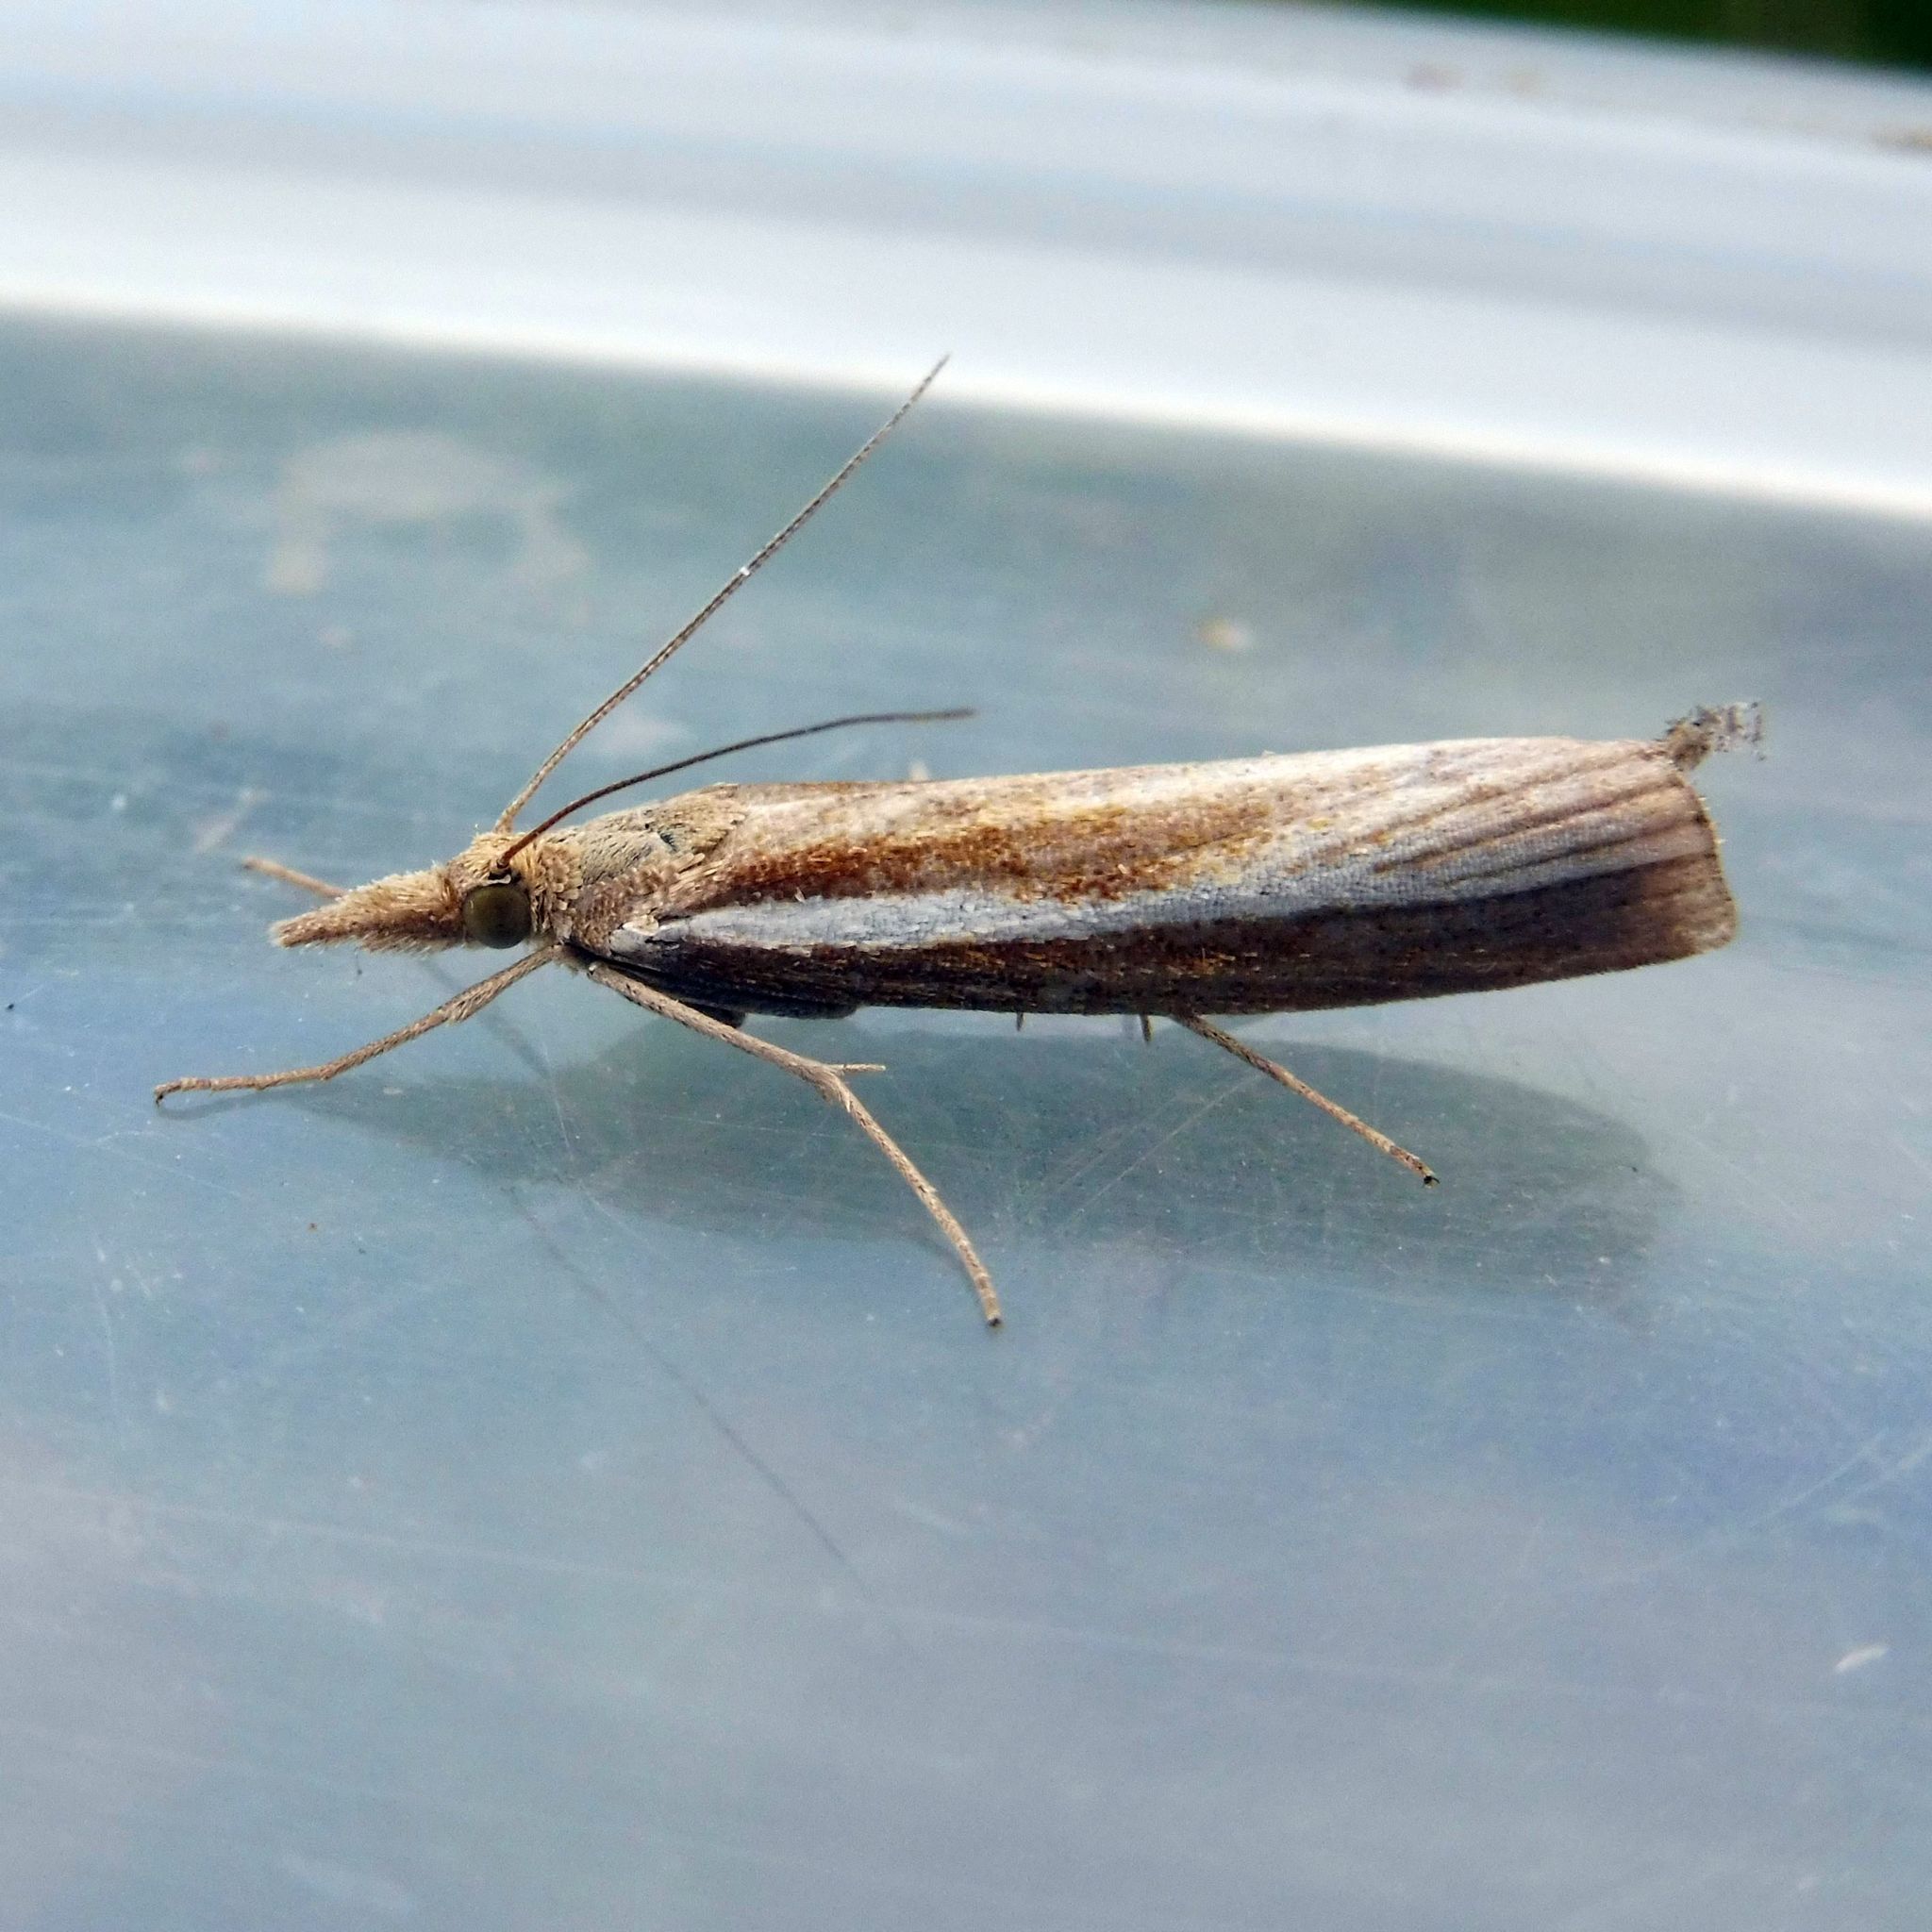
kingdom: Animalia
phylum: Arthropoda
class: Insecta
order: Lepidoptera
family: Crambidae
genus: Agriphila
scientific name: Agriphila tristellus
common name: Common grass-veneer
